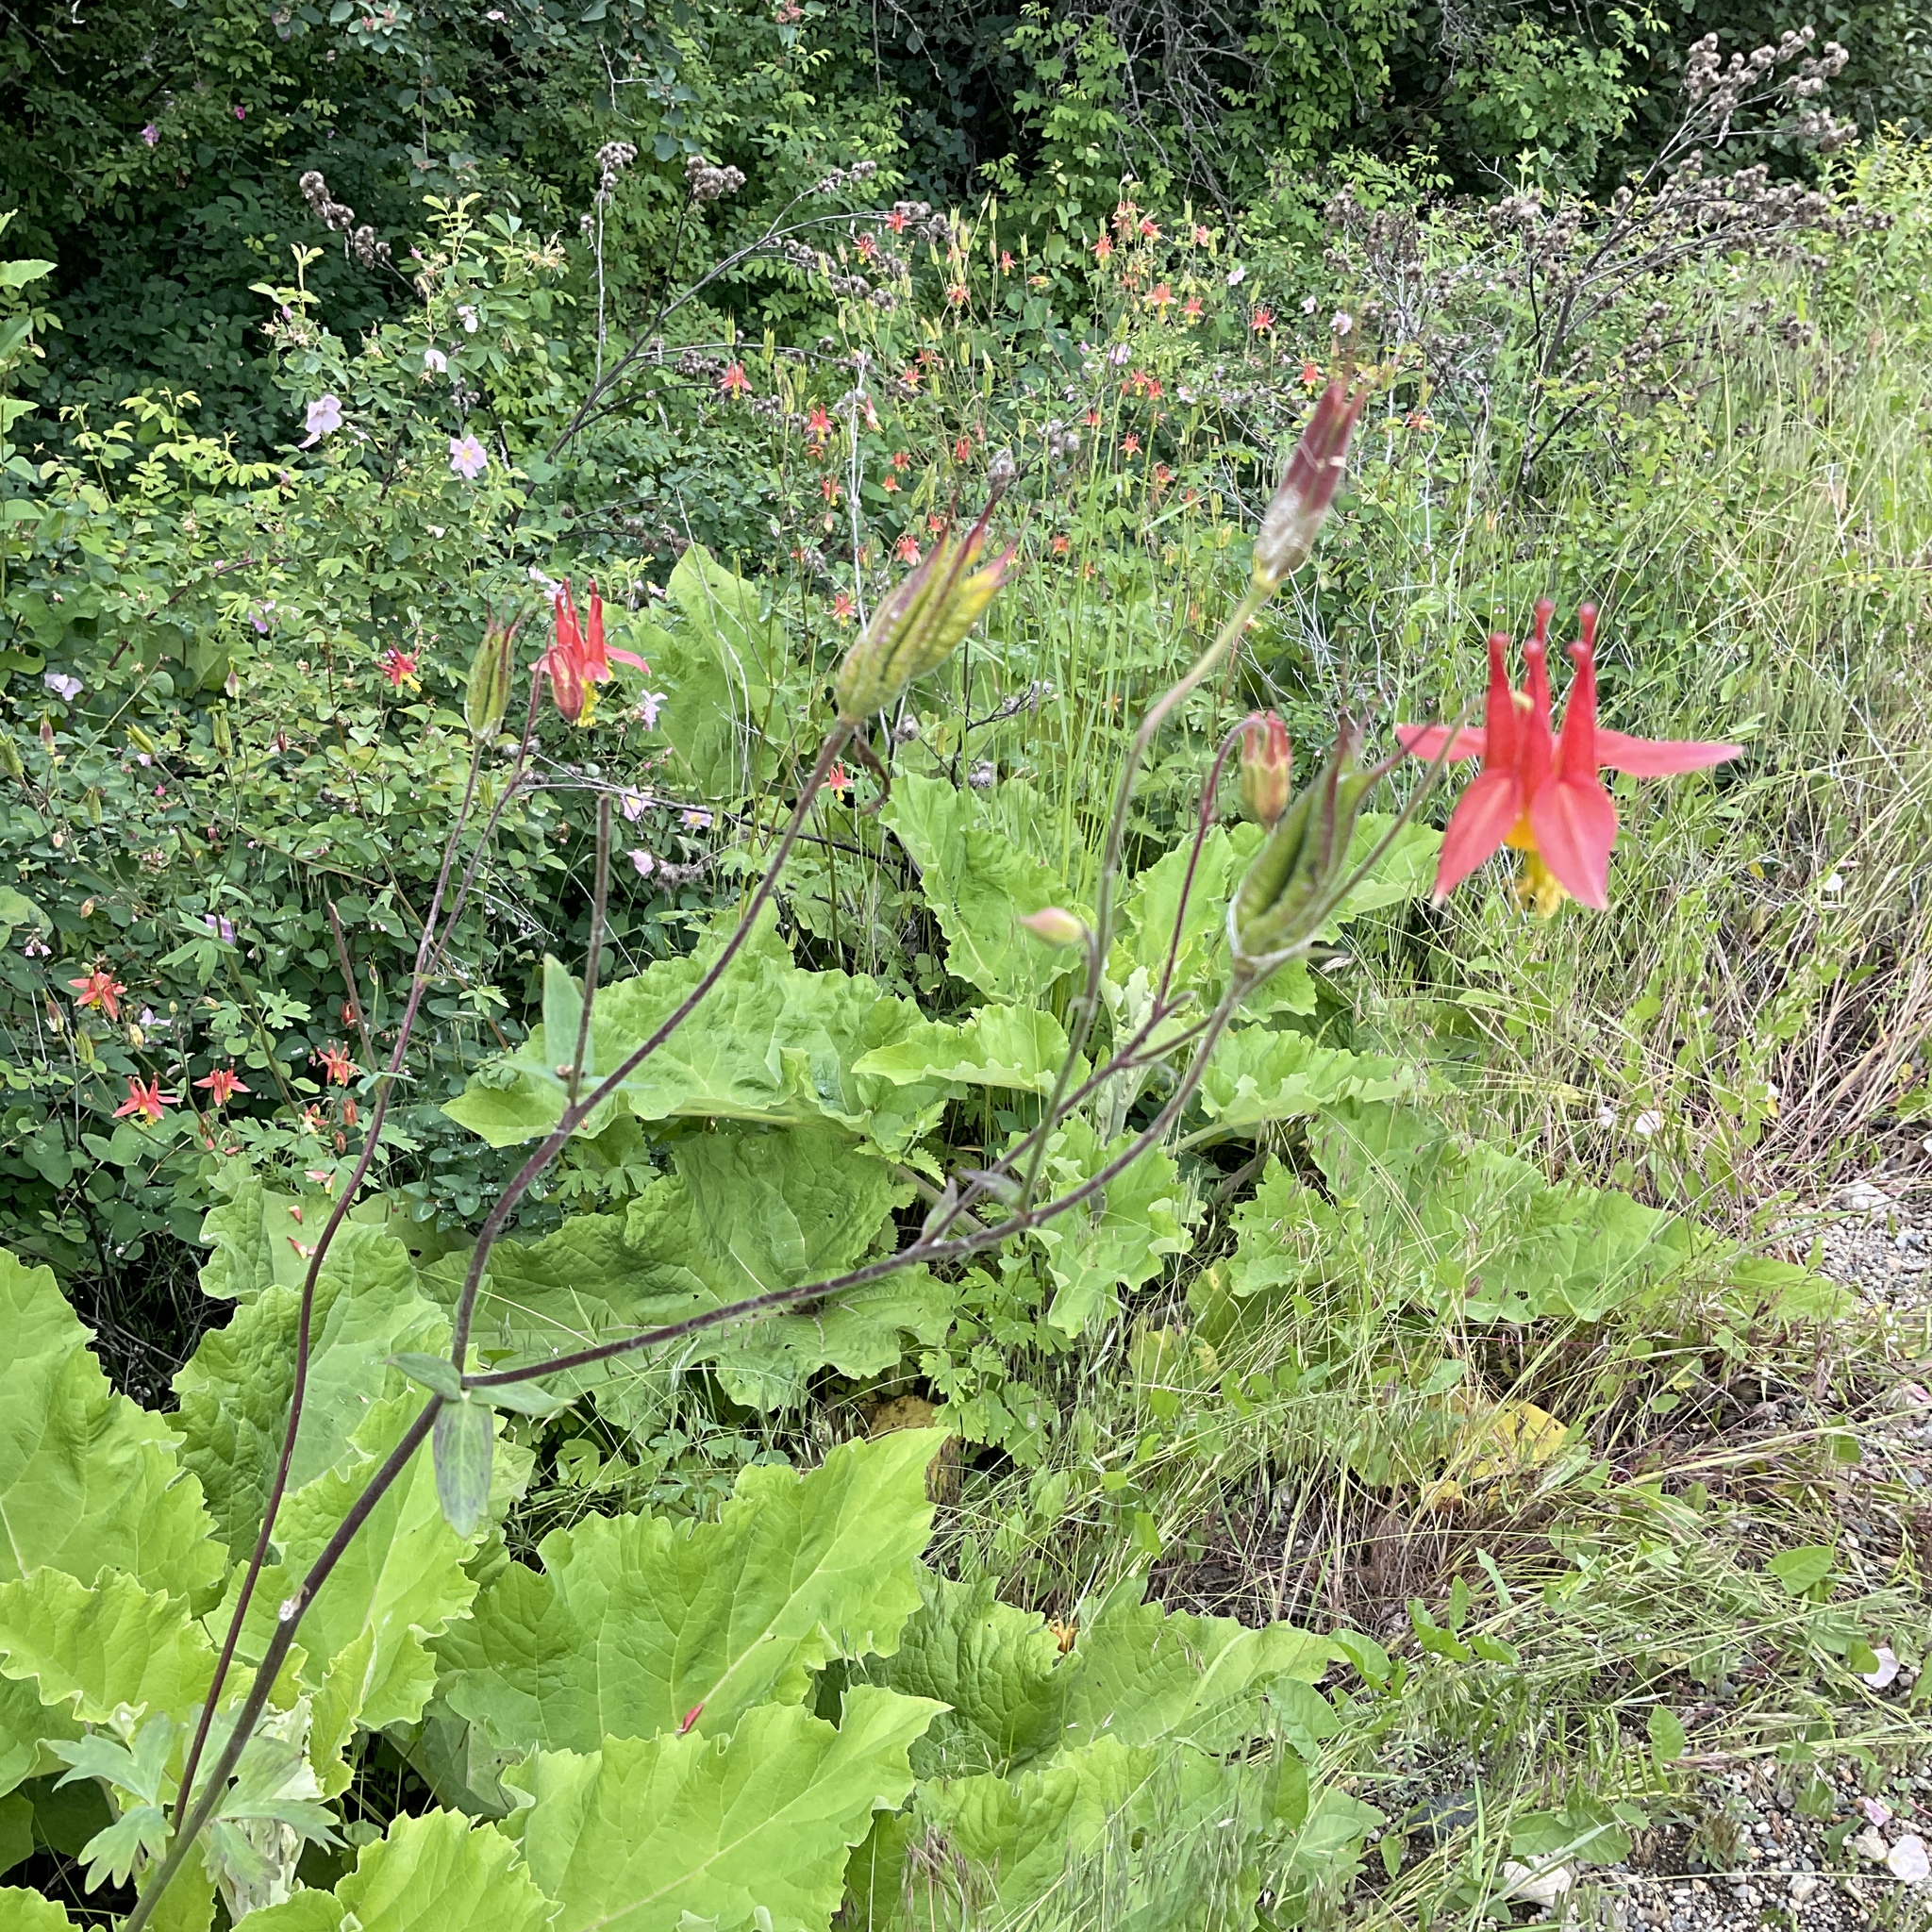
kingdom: Plantae
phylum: Tracheophyta
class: Magnoliopsida
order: Ranunculales
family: Ranunculaceae
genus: Aquilegia
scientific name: Aquilegia formosa
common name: Sitka columbine
